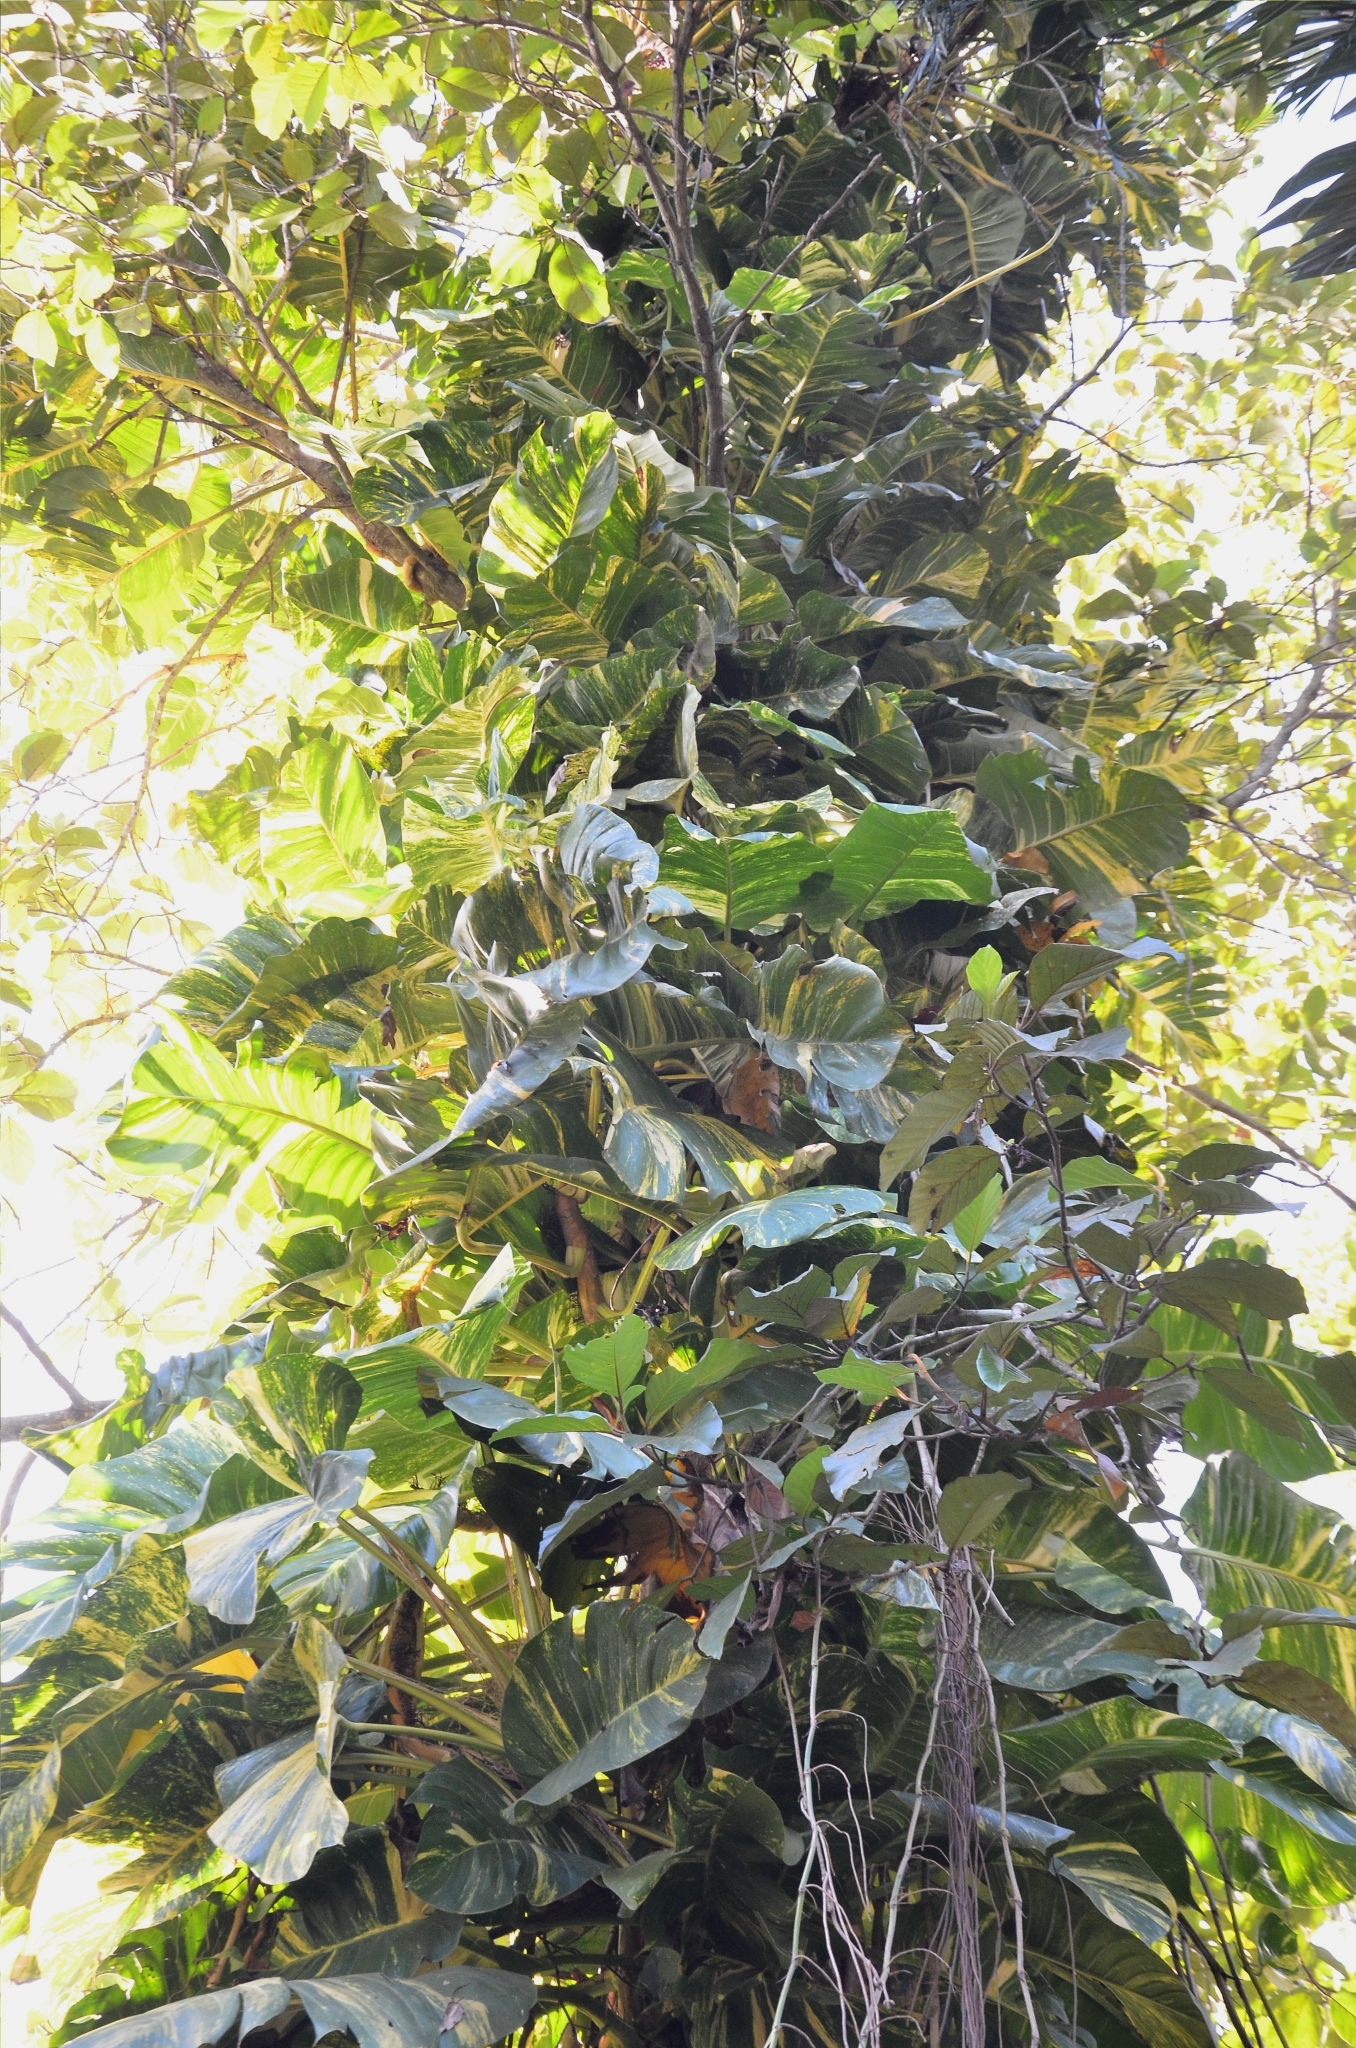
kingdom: Plantae
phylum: Tracheophyta
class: Liliopsida
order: Alismatales
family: Araceae
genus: Epipremnum
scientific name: Epipremnum aureum
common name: Golden hunter's-robe
